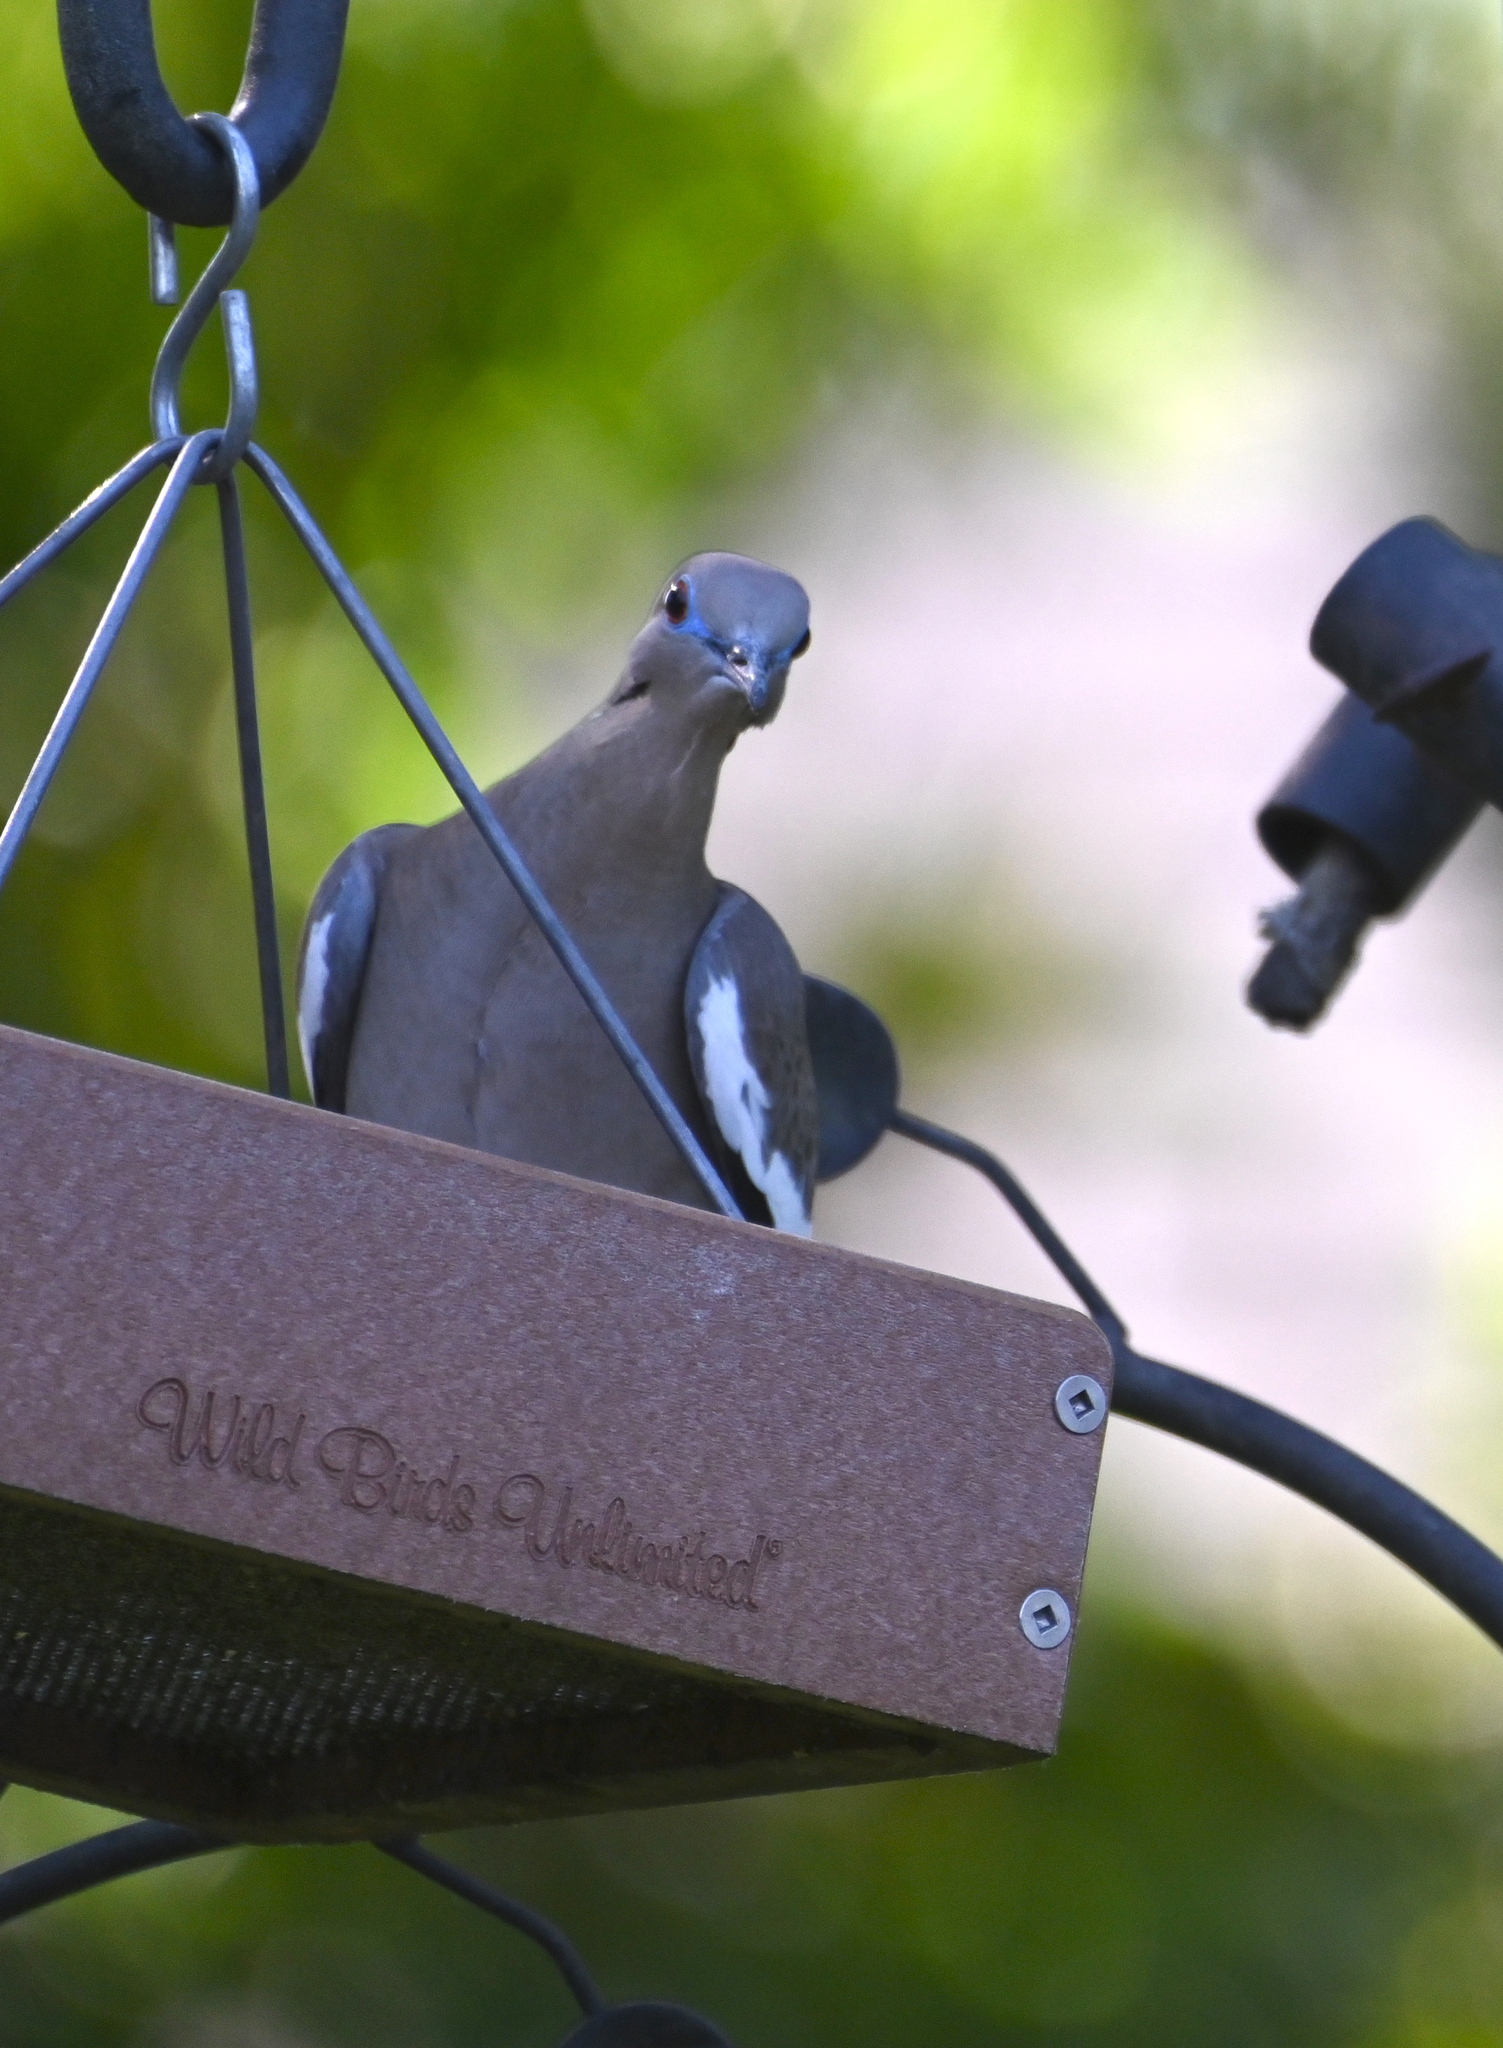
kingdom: Animalia
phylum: Chordata
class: Aves
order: Columbiformes
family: Columbidae
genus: Zenaida
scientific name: Zenaida asiatica
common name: White-winged dove
